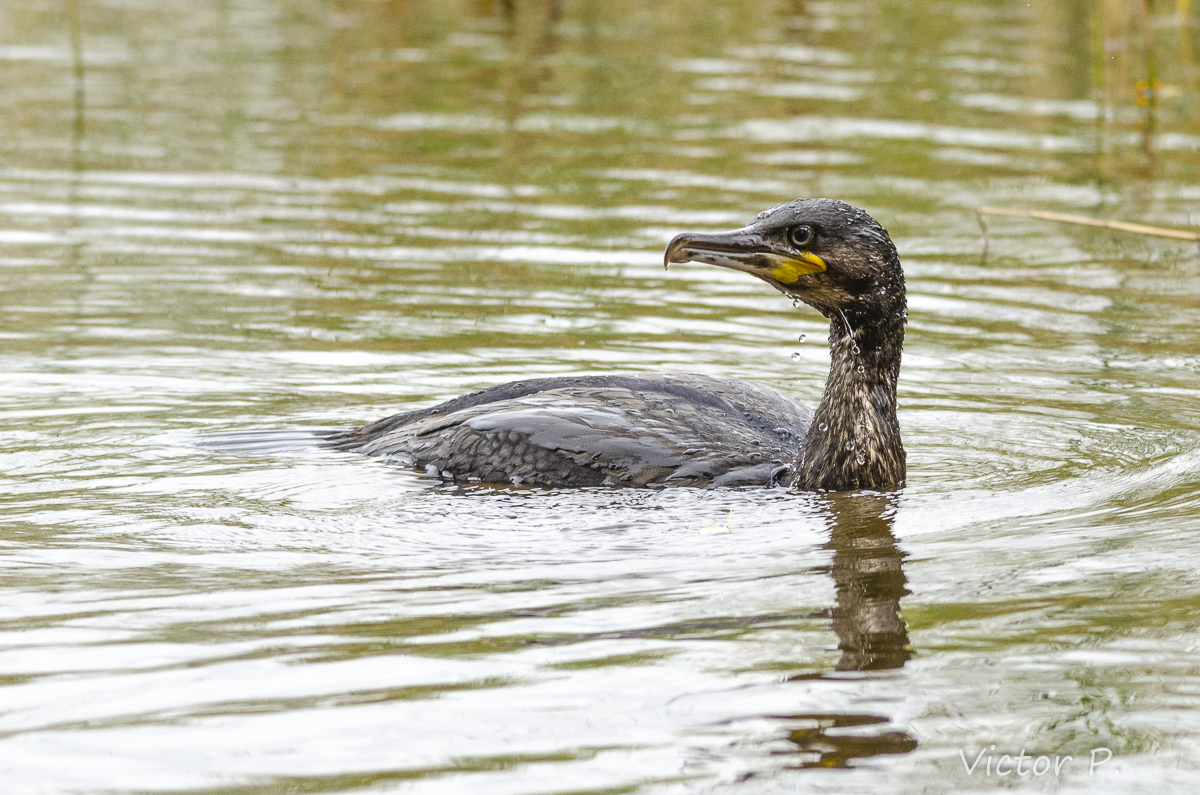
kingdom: Animalia
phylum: Chordata
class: Aves
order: Suliformes
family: Phalacrocoracidae
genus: Phalacrocorax
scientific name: Phalacrocorax carbo
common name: Great cormorant
